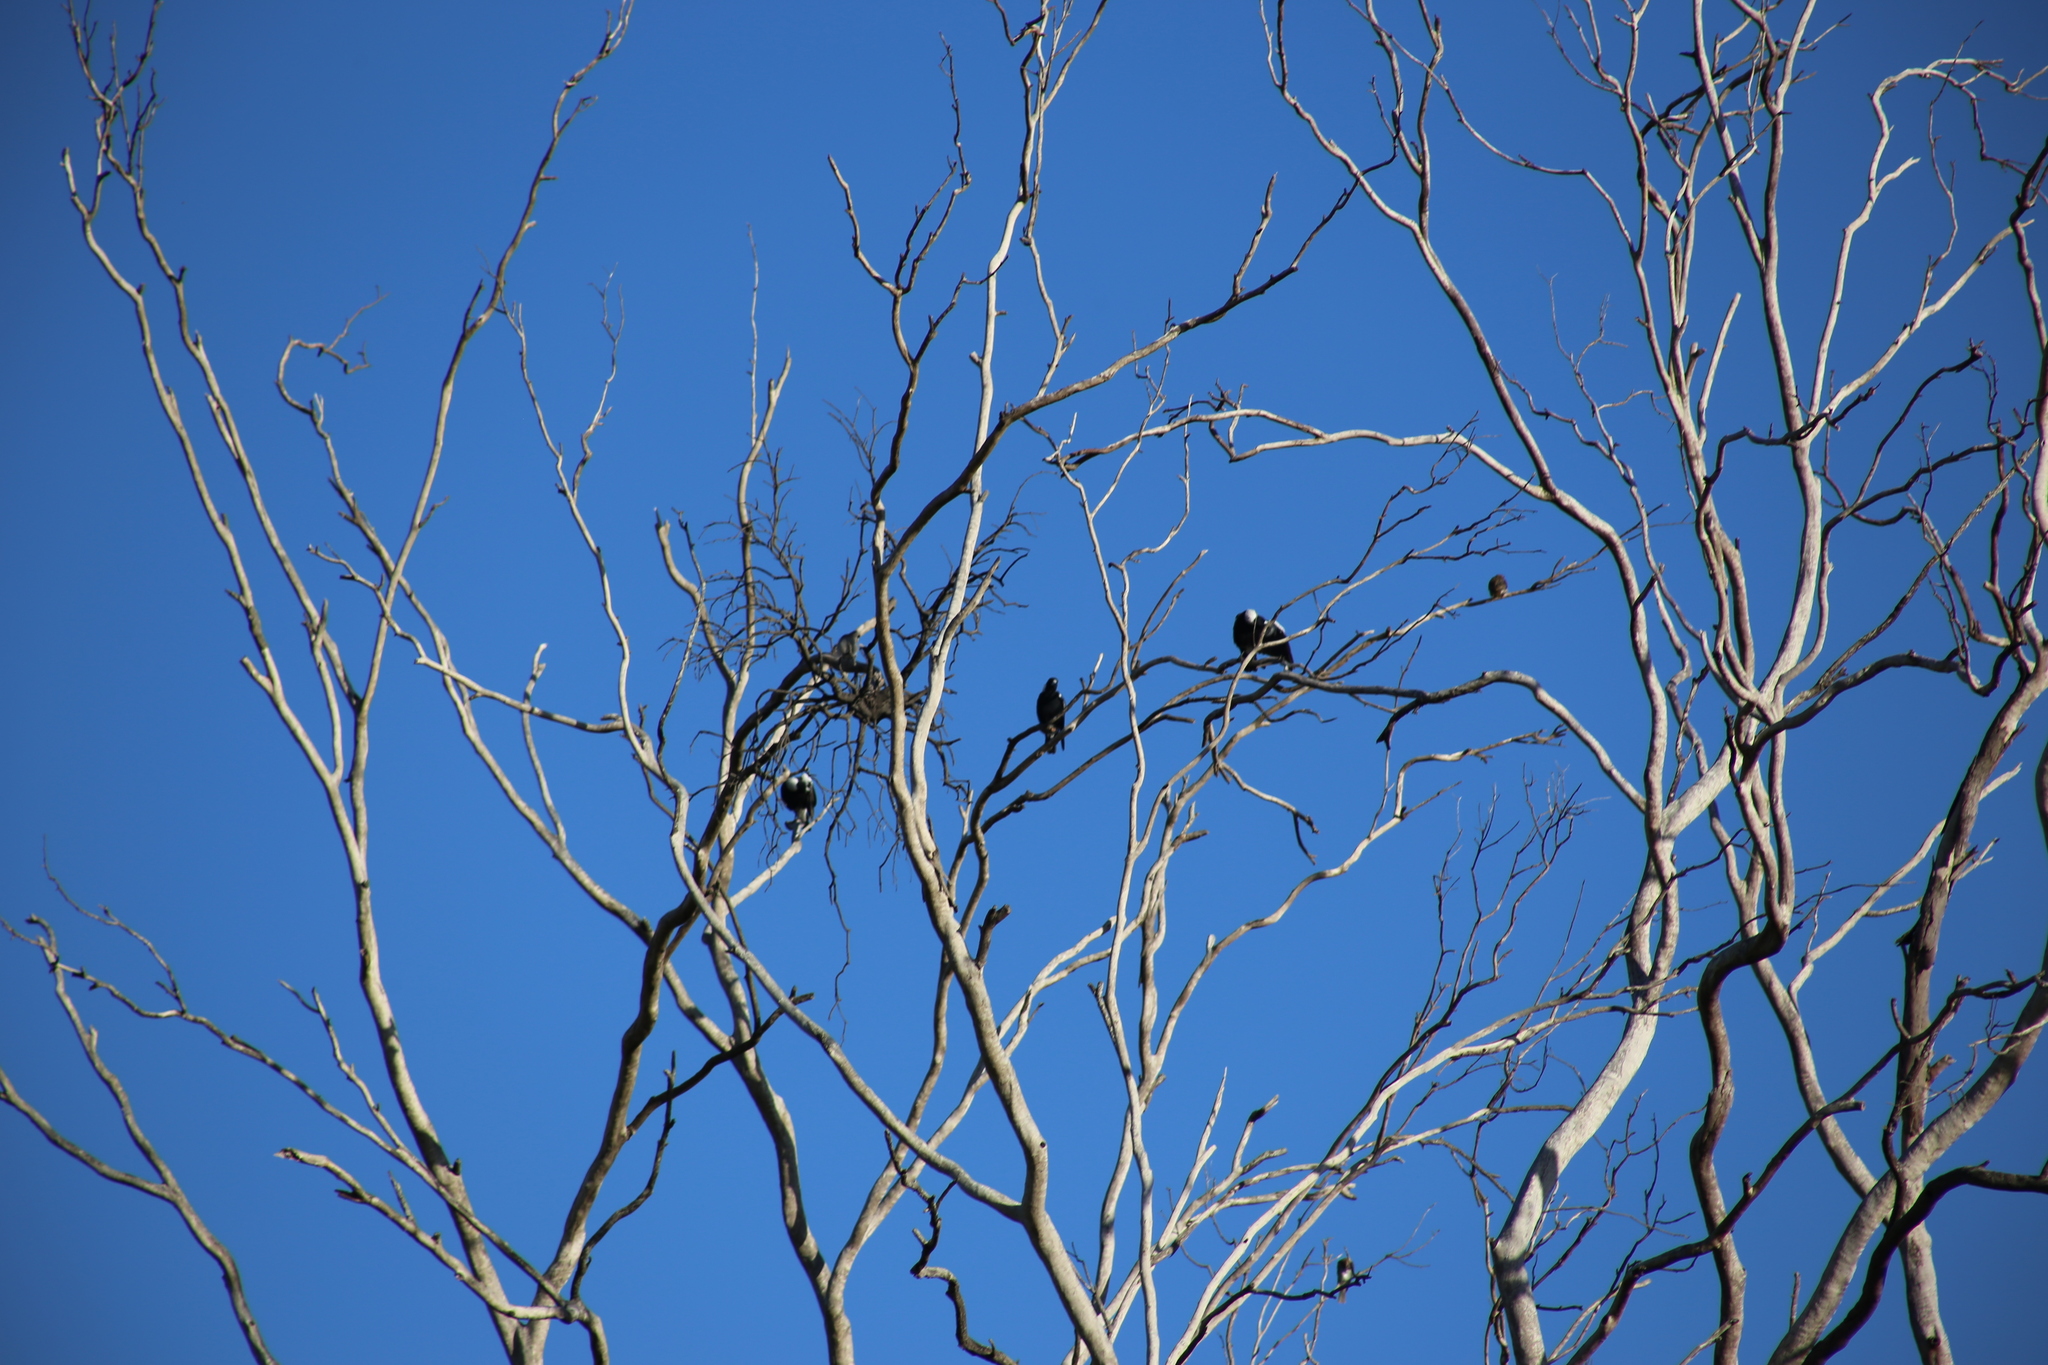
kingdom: Animalia
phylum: Chordata
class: Aves
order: Passeriformes
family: Cracticidae
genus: Gymnorhina
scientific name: Gymnorhina tibicen
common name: Australian magpie
